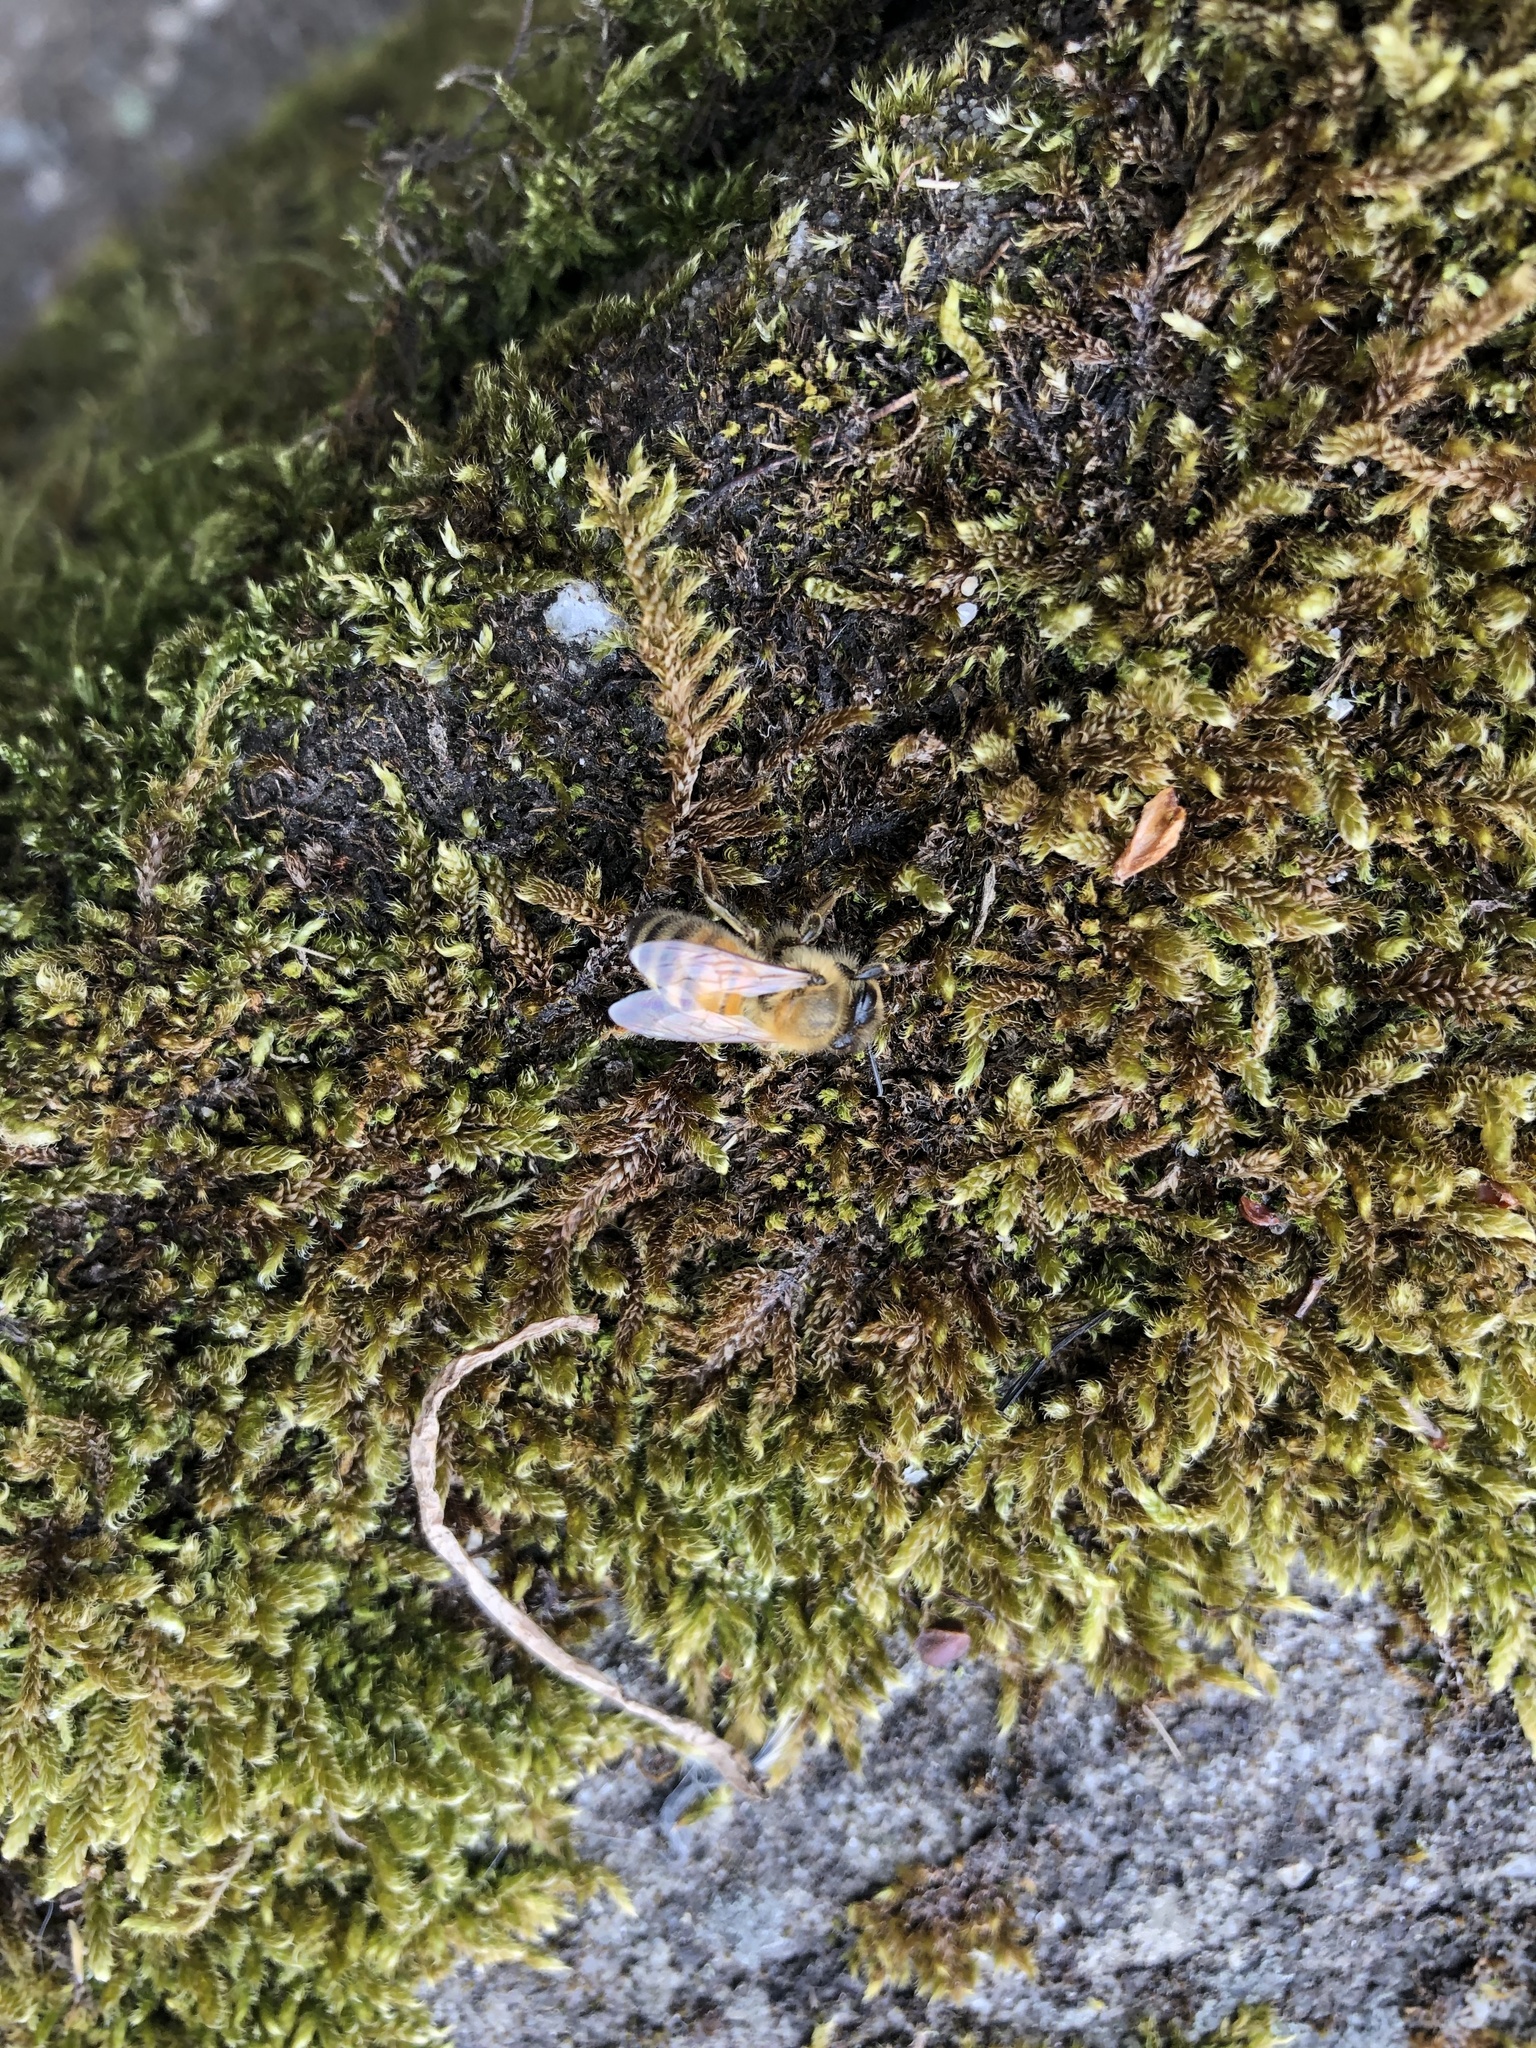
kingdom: Animalia
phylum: Arthropoda
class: Insecta
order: Hymenoptera
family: Apidae
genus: Apis
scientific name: Apis mellifera
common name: Honey bee
